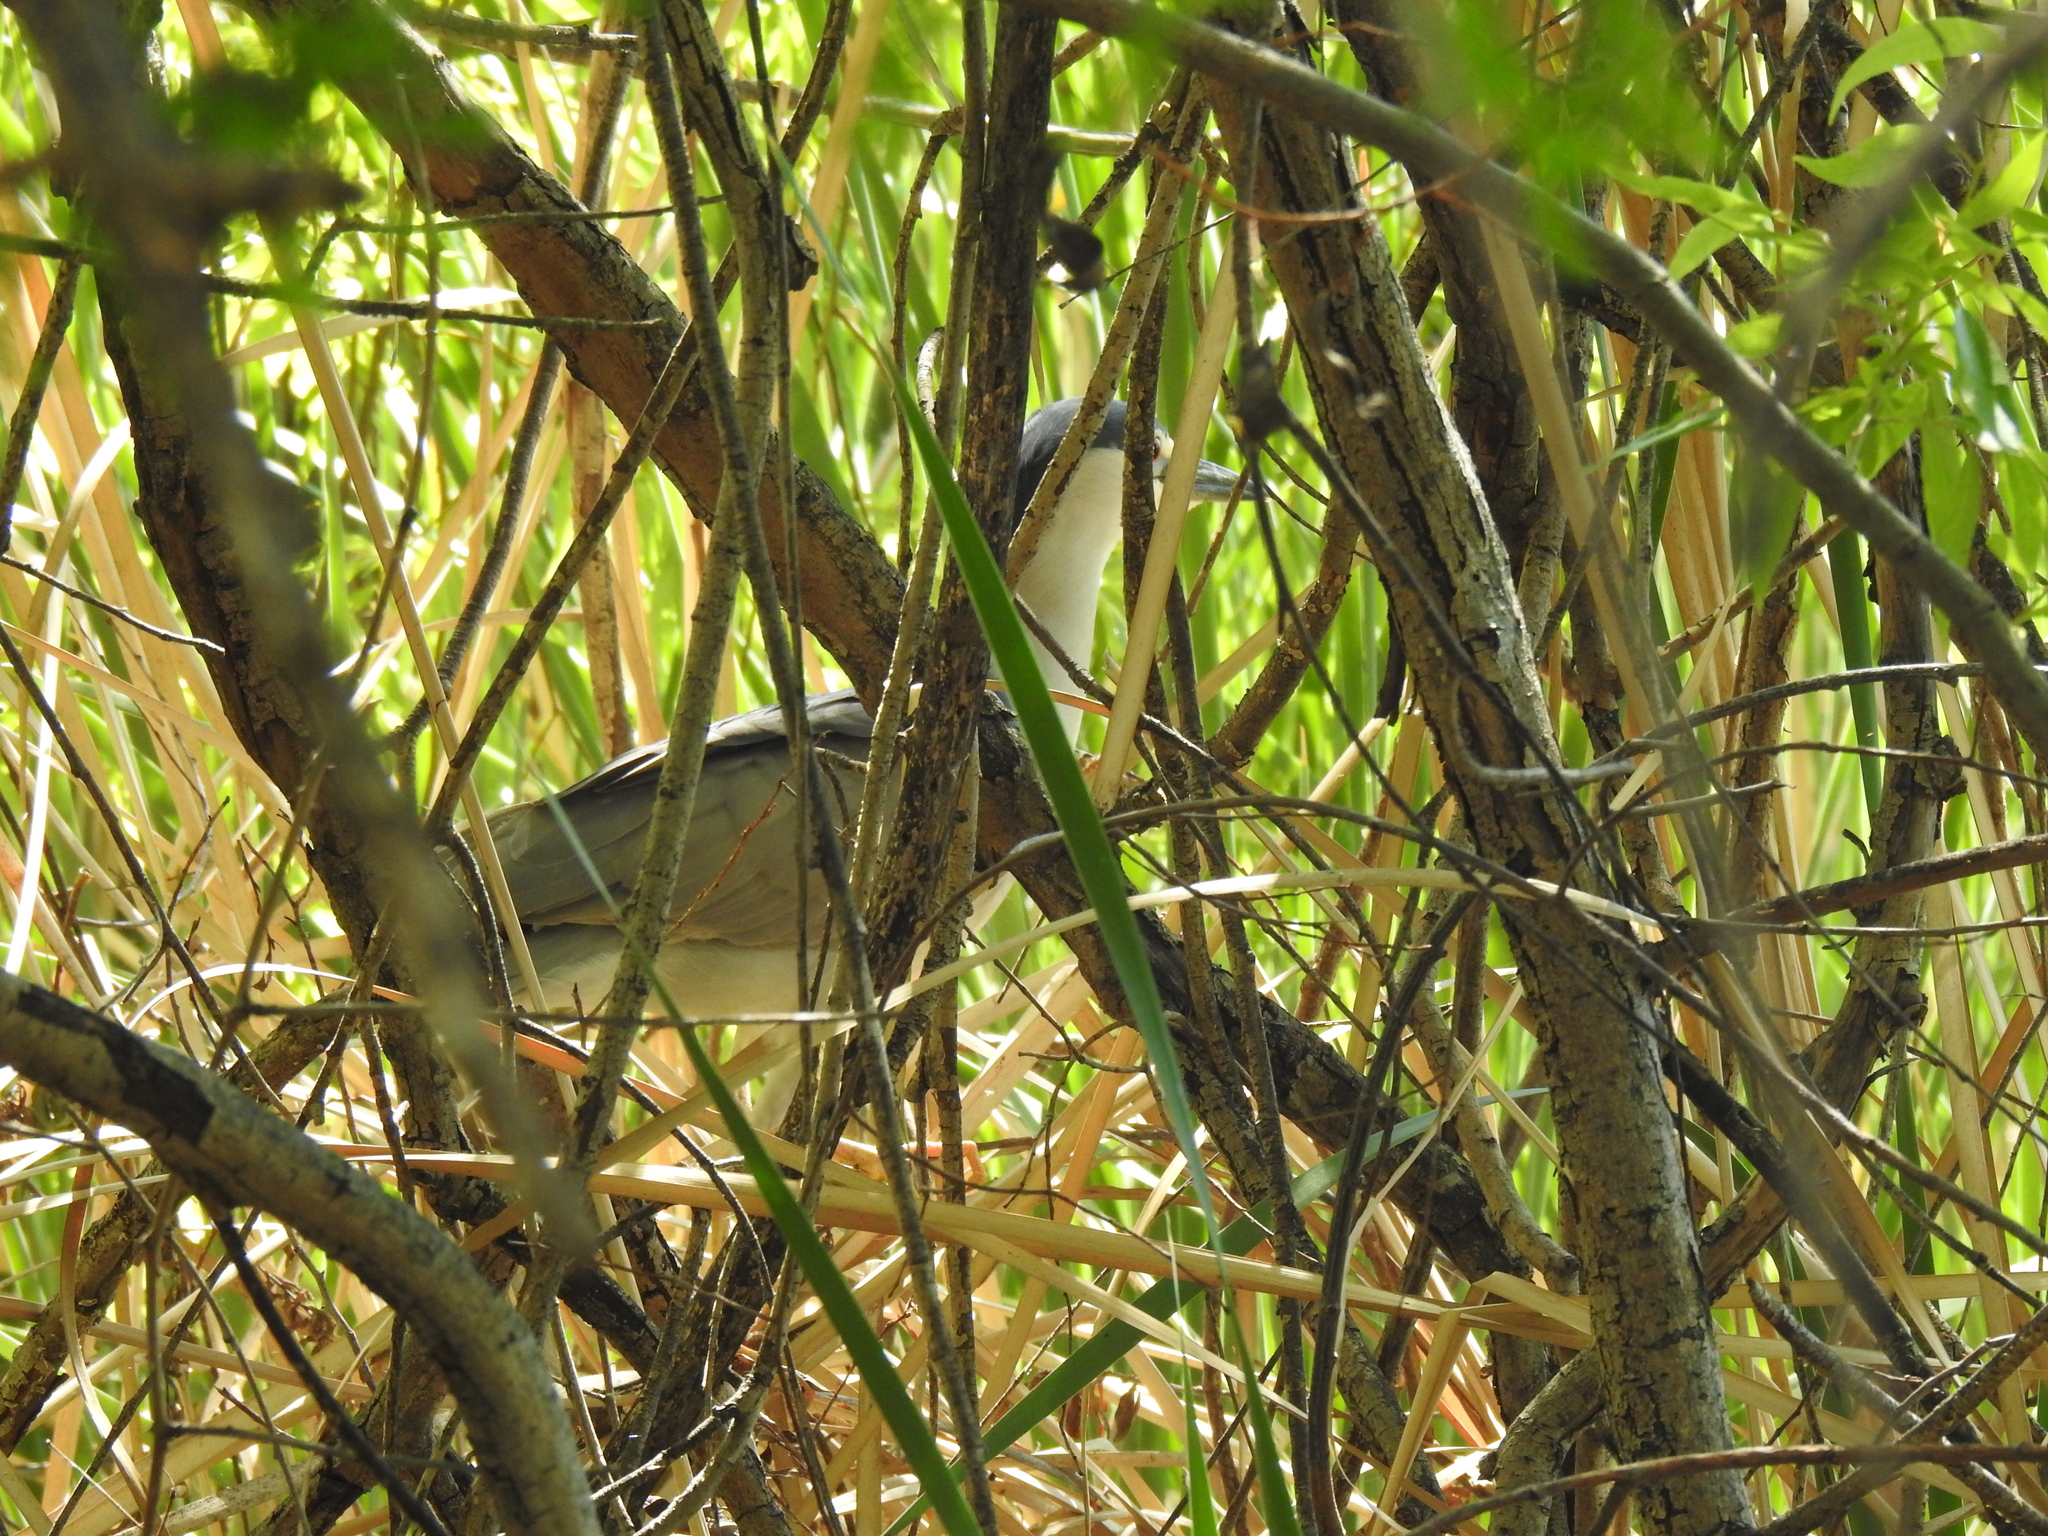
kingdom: Animalia
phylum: Chordata
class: Aves
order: Pelecaniformes
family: Ardeidae
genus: Nycticorax
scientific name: Nycticorax nycticorax
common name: Black-crowned night heron
